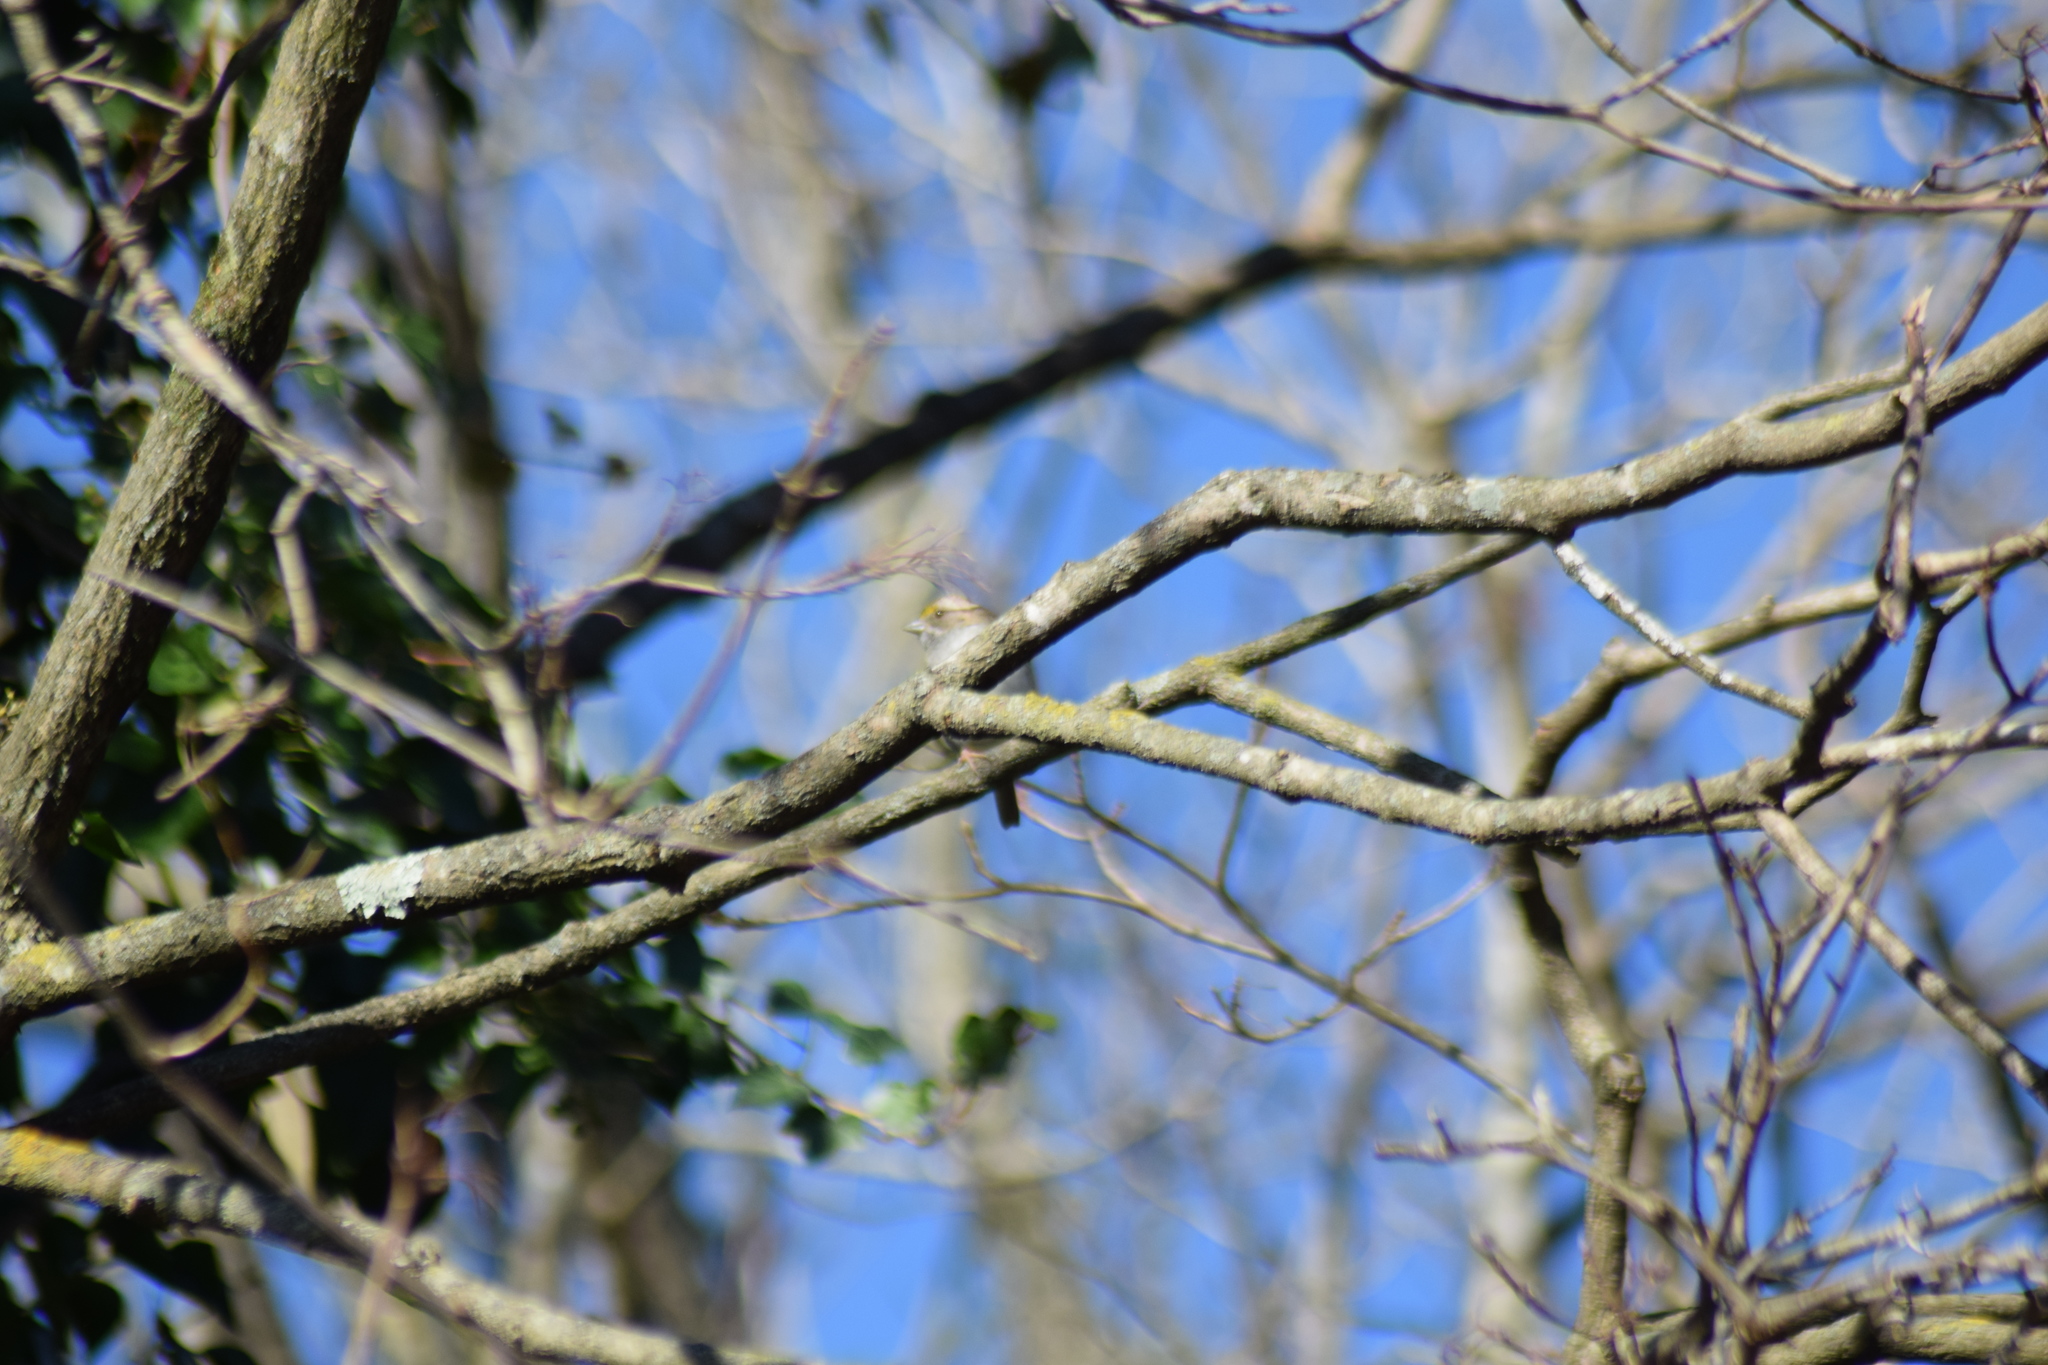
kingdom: Animalia
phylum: Chordata
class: Aves
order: Passeriformes
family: Passerellidae
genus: Zonotrichia
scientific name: Zonotrichia albicollis
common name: White-throated sparrow
